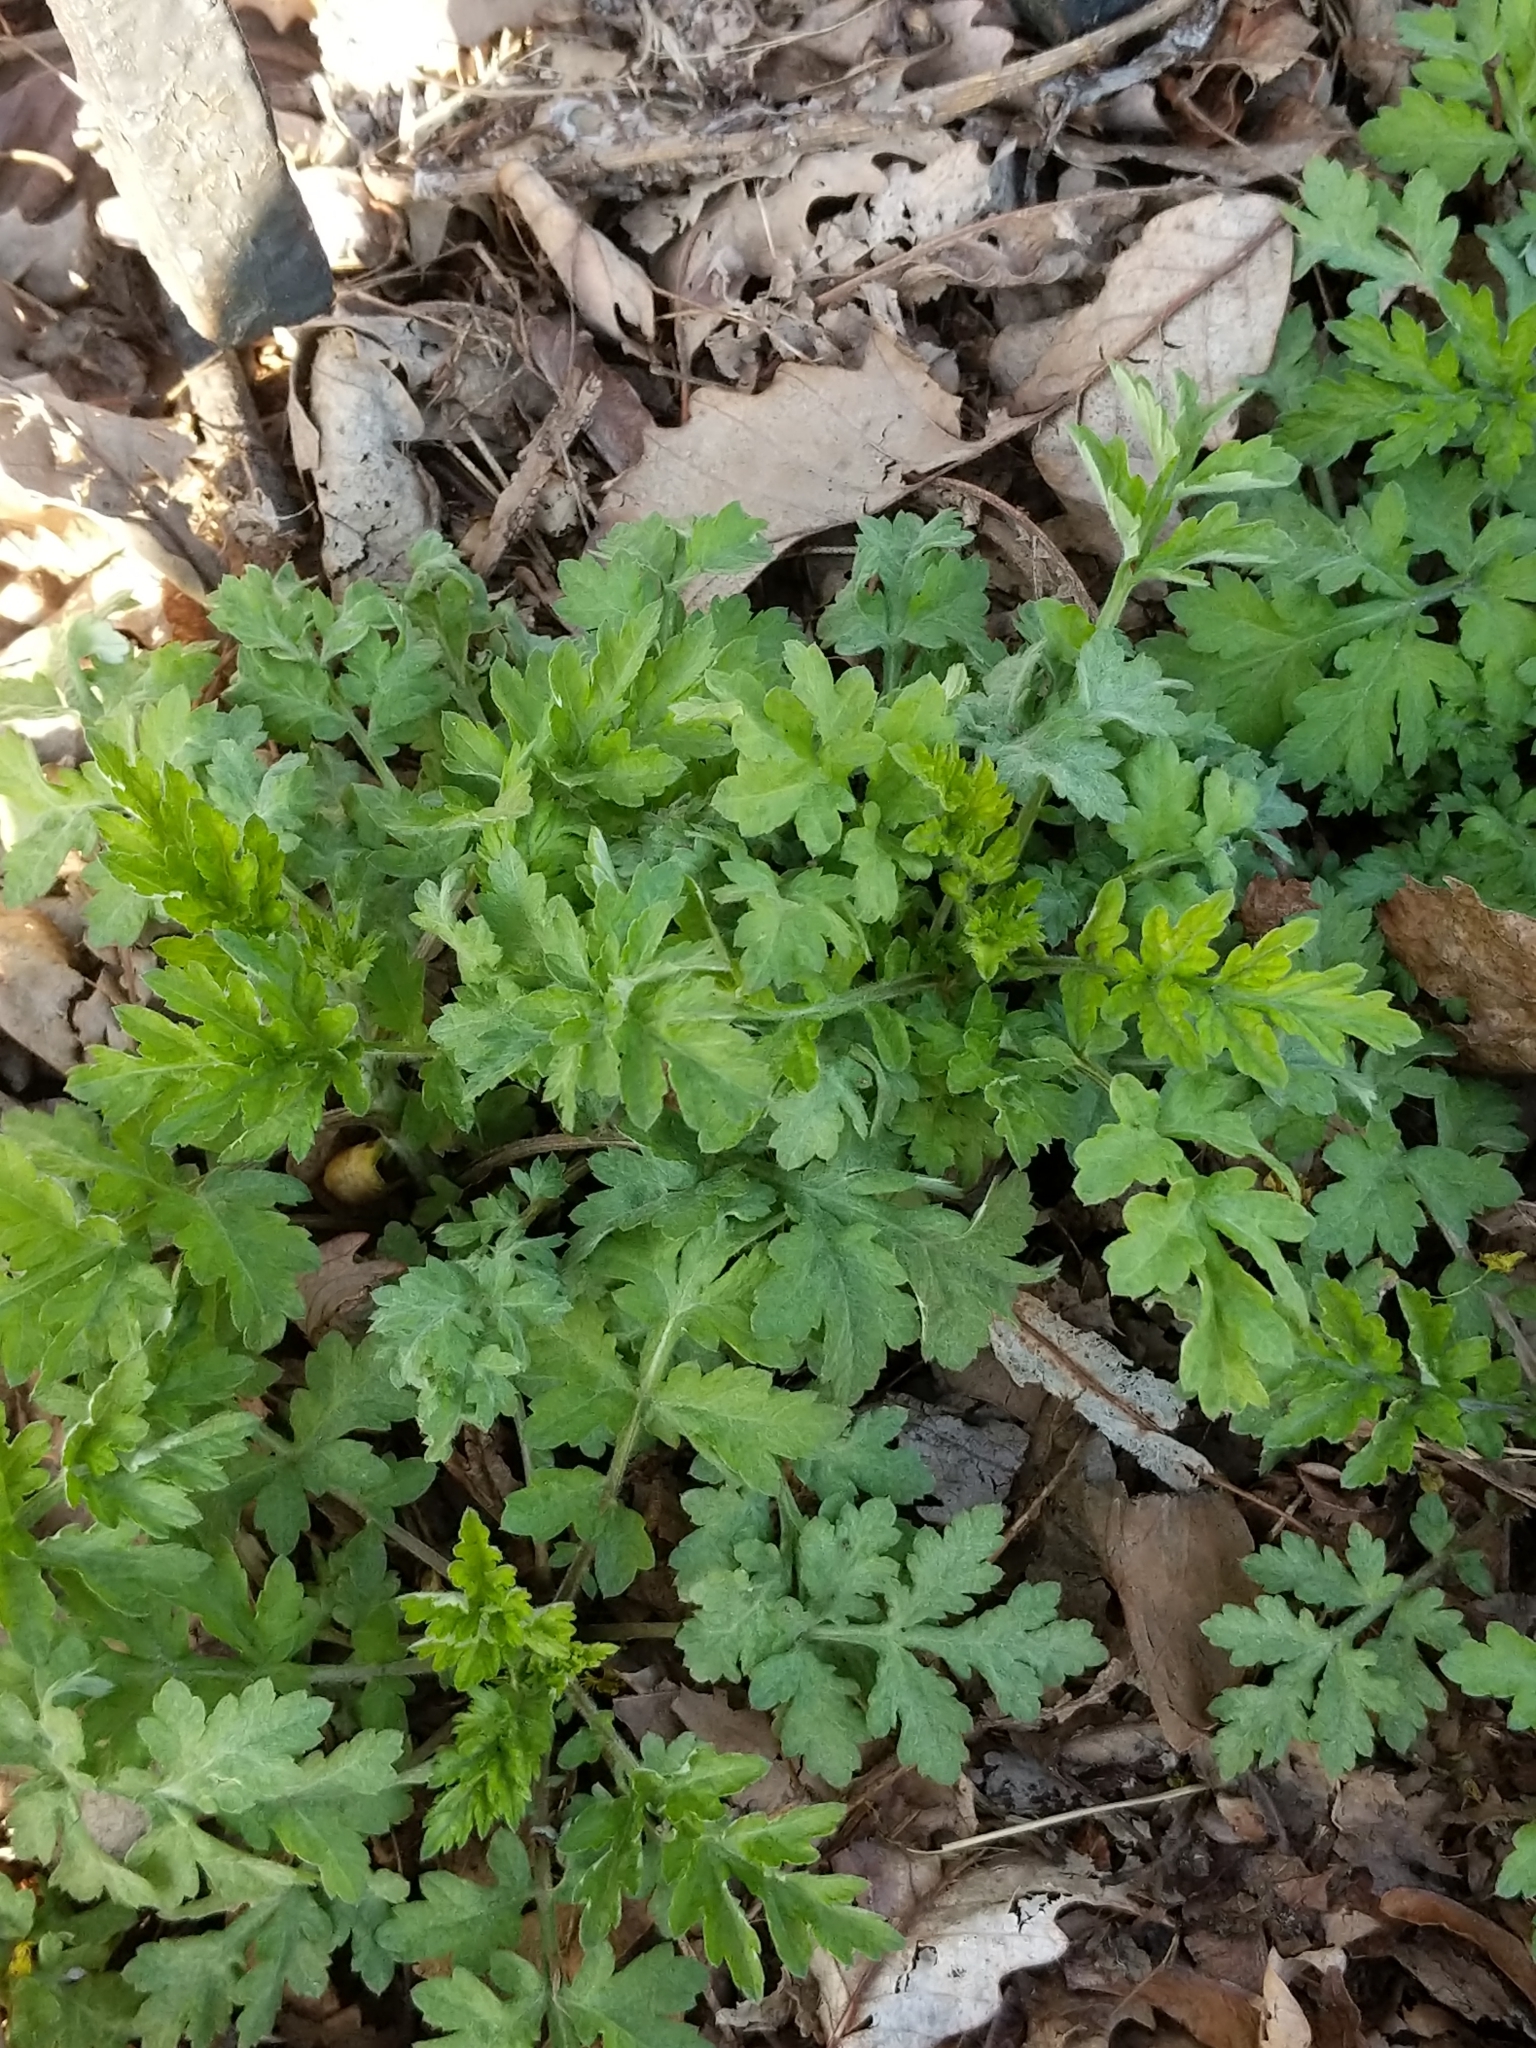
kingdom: Plantae
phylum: Tracheophyta
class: Magnoliopsida
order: Asterales
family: Asteraceae
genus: Artemisia
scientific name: Artemisia vulgaris
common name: Mugwort
